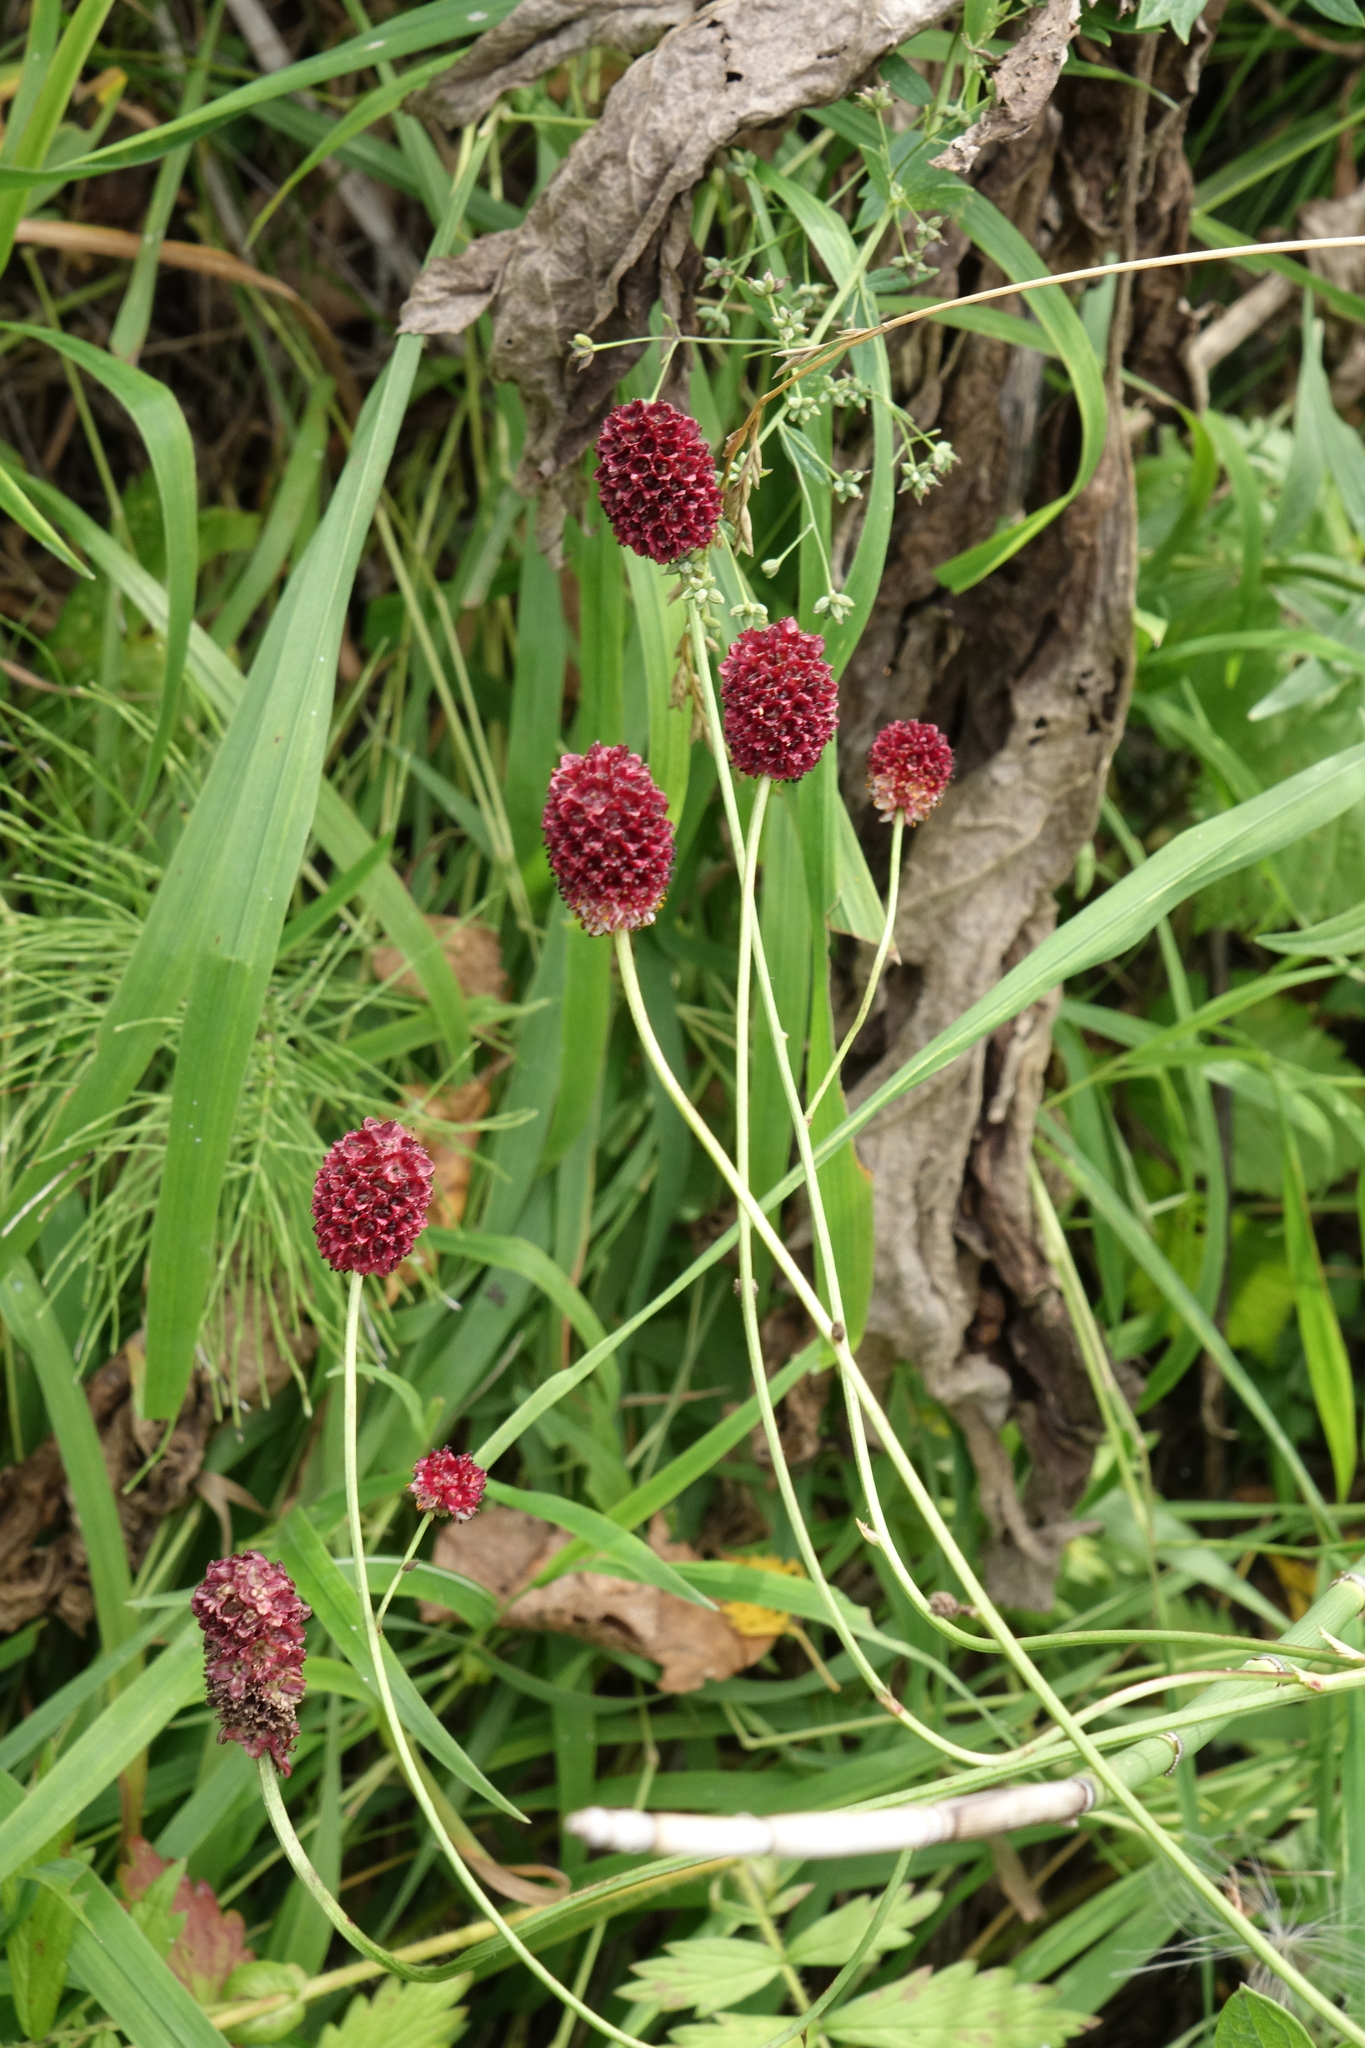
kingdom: Plantae
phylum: Tracheophyta
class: Magnoliopsida
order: Rosales
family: Rosaceae
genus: Sanguisorba
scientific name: Sanguisorba officinalis
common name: Great burnet
